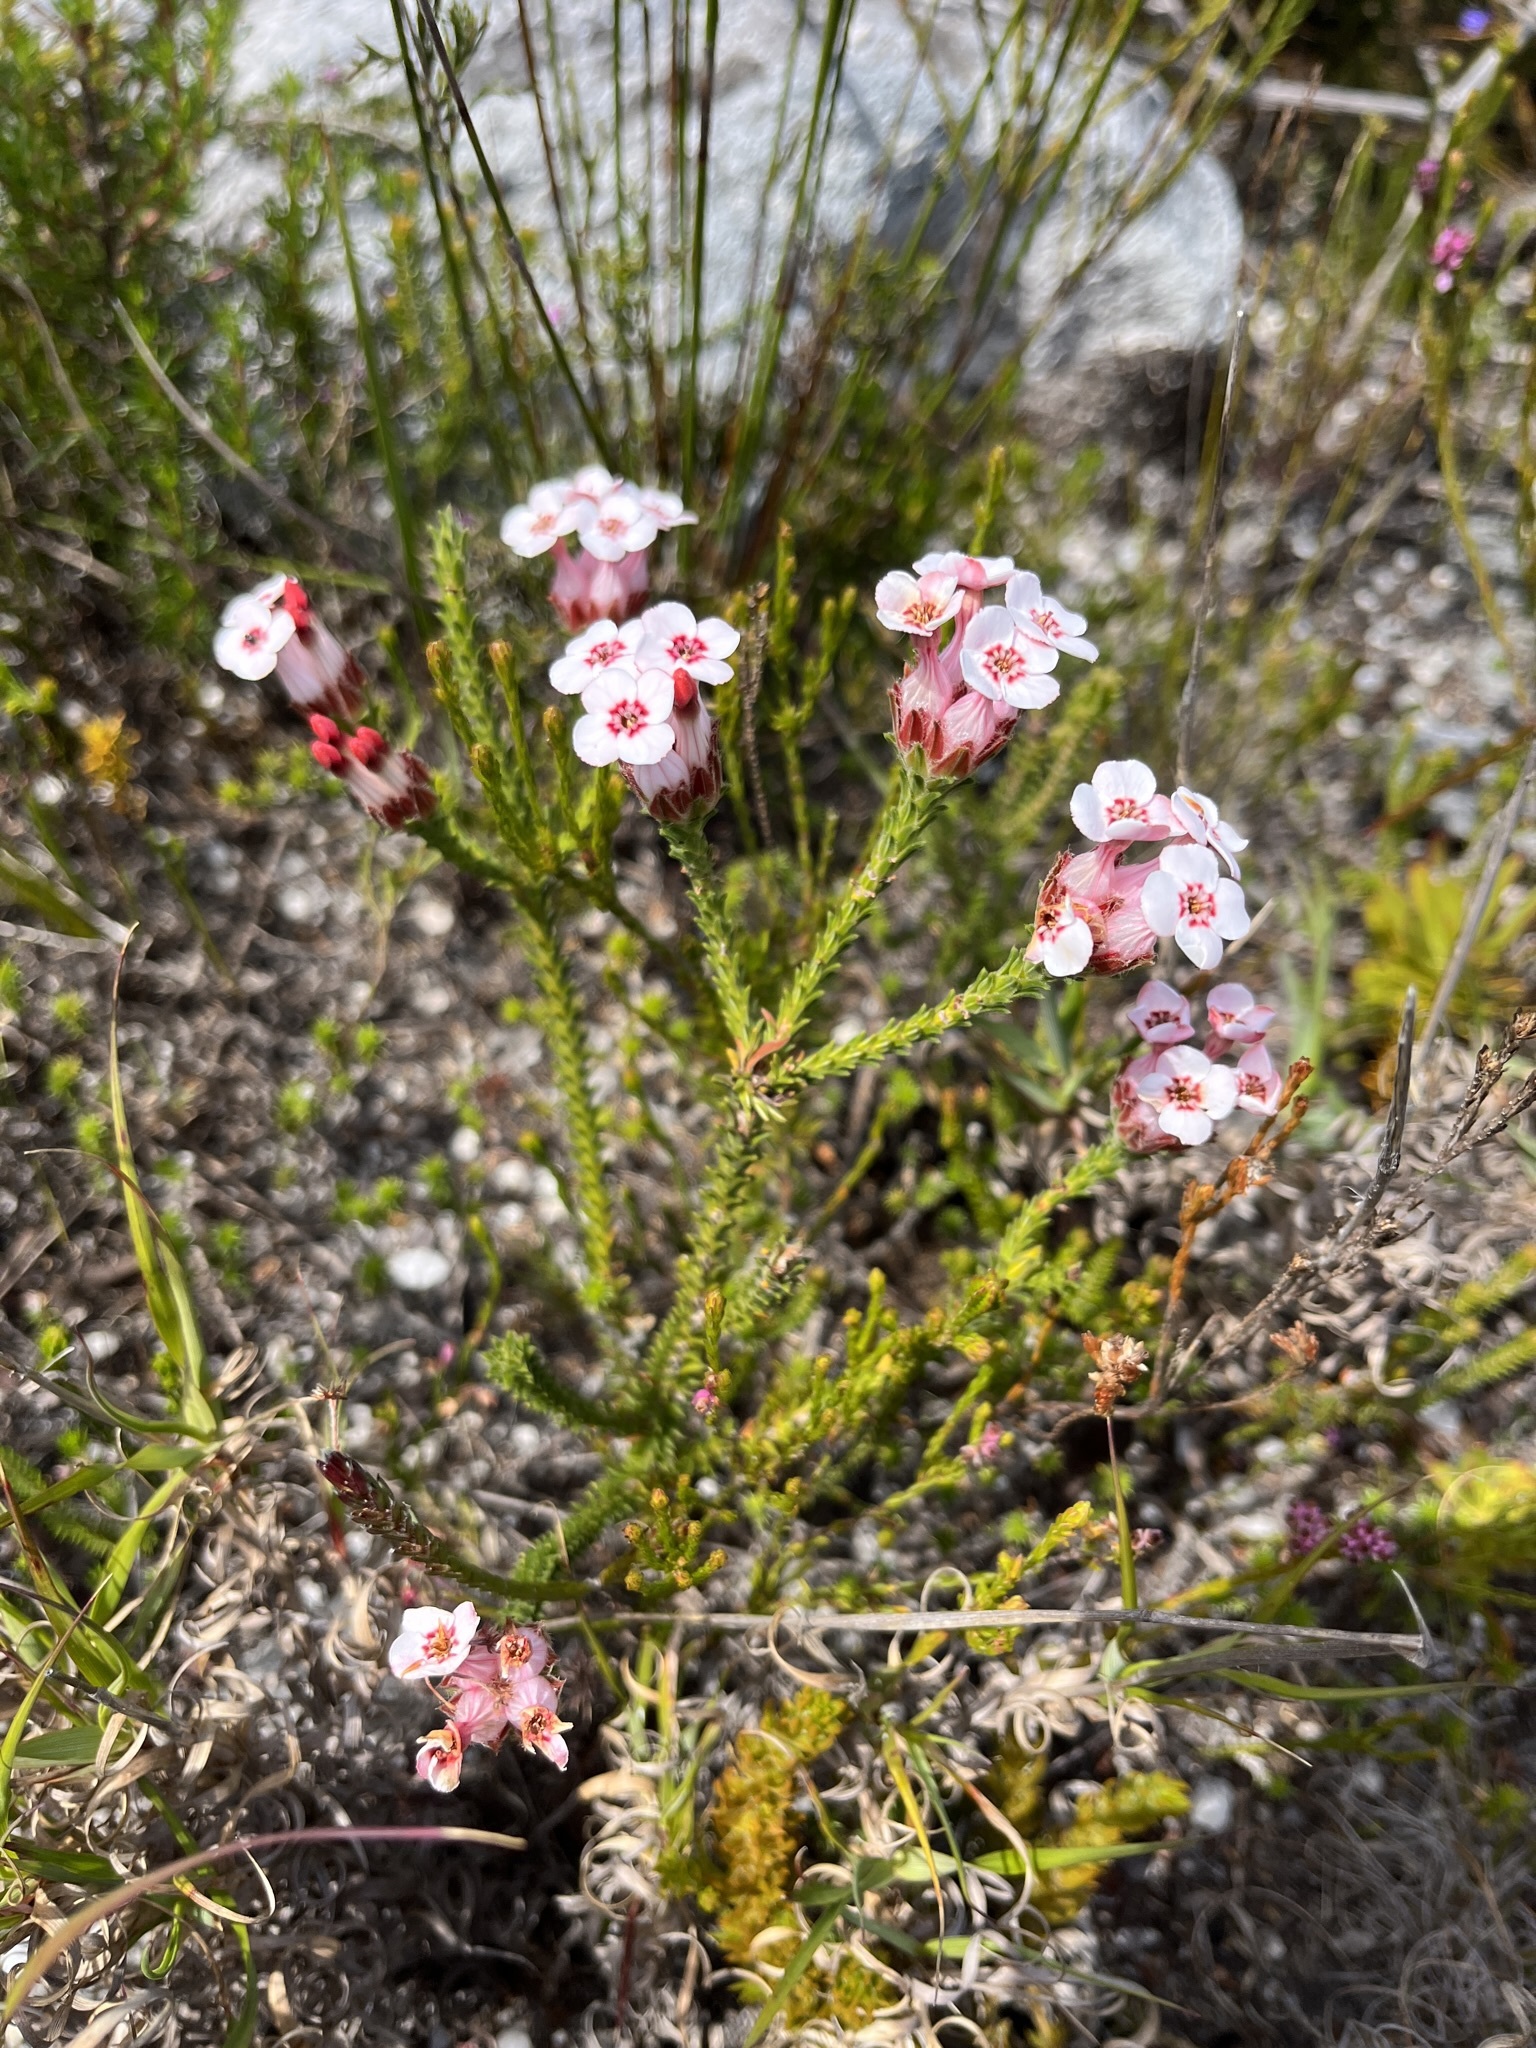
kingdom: Plantae
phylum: Tracheophyta
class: Magnoliopsida
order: Ericales
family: Ericaceae
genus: Erica
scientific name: Erica ampullacea
